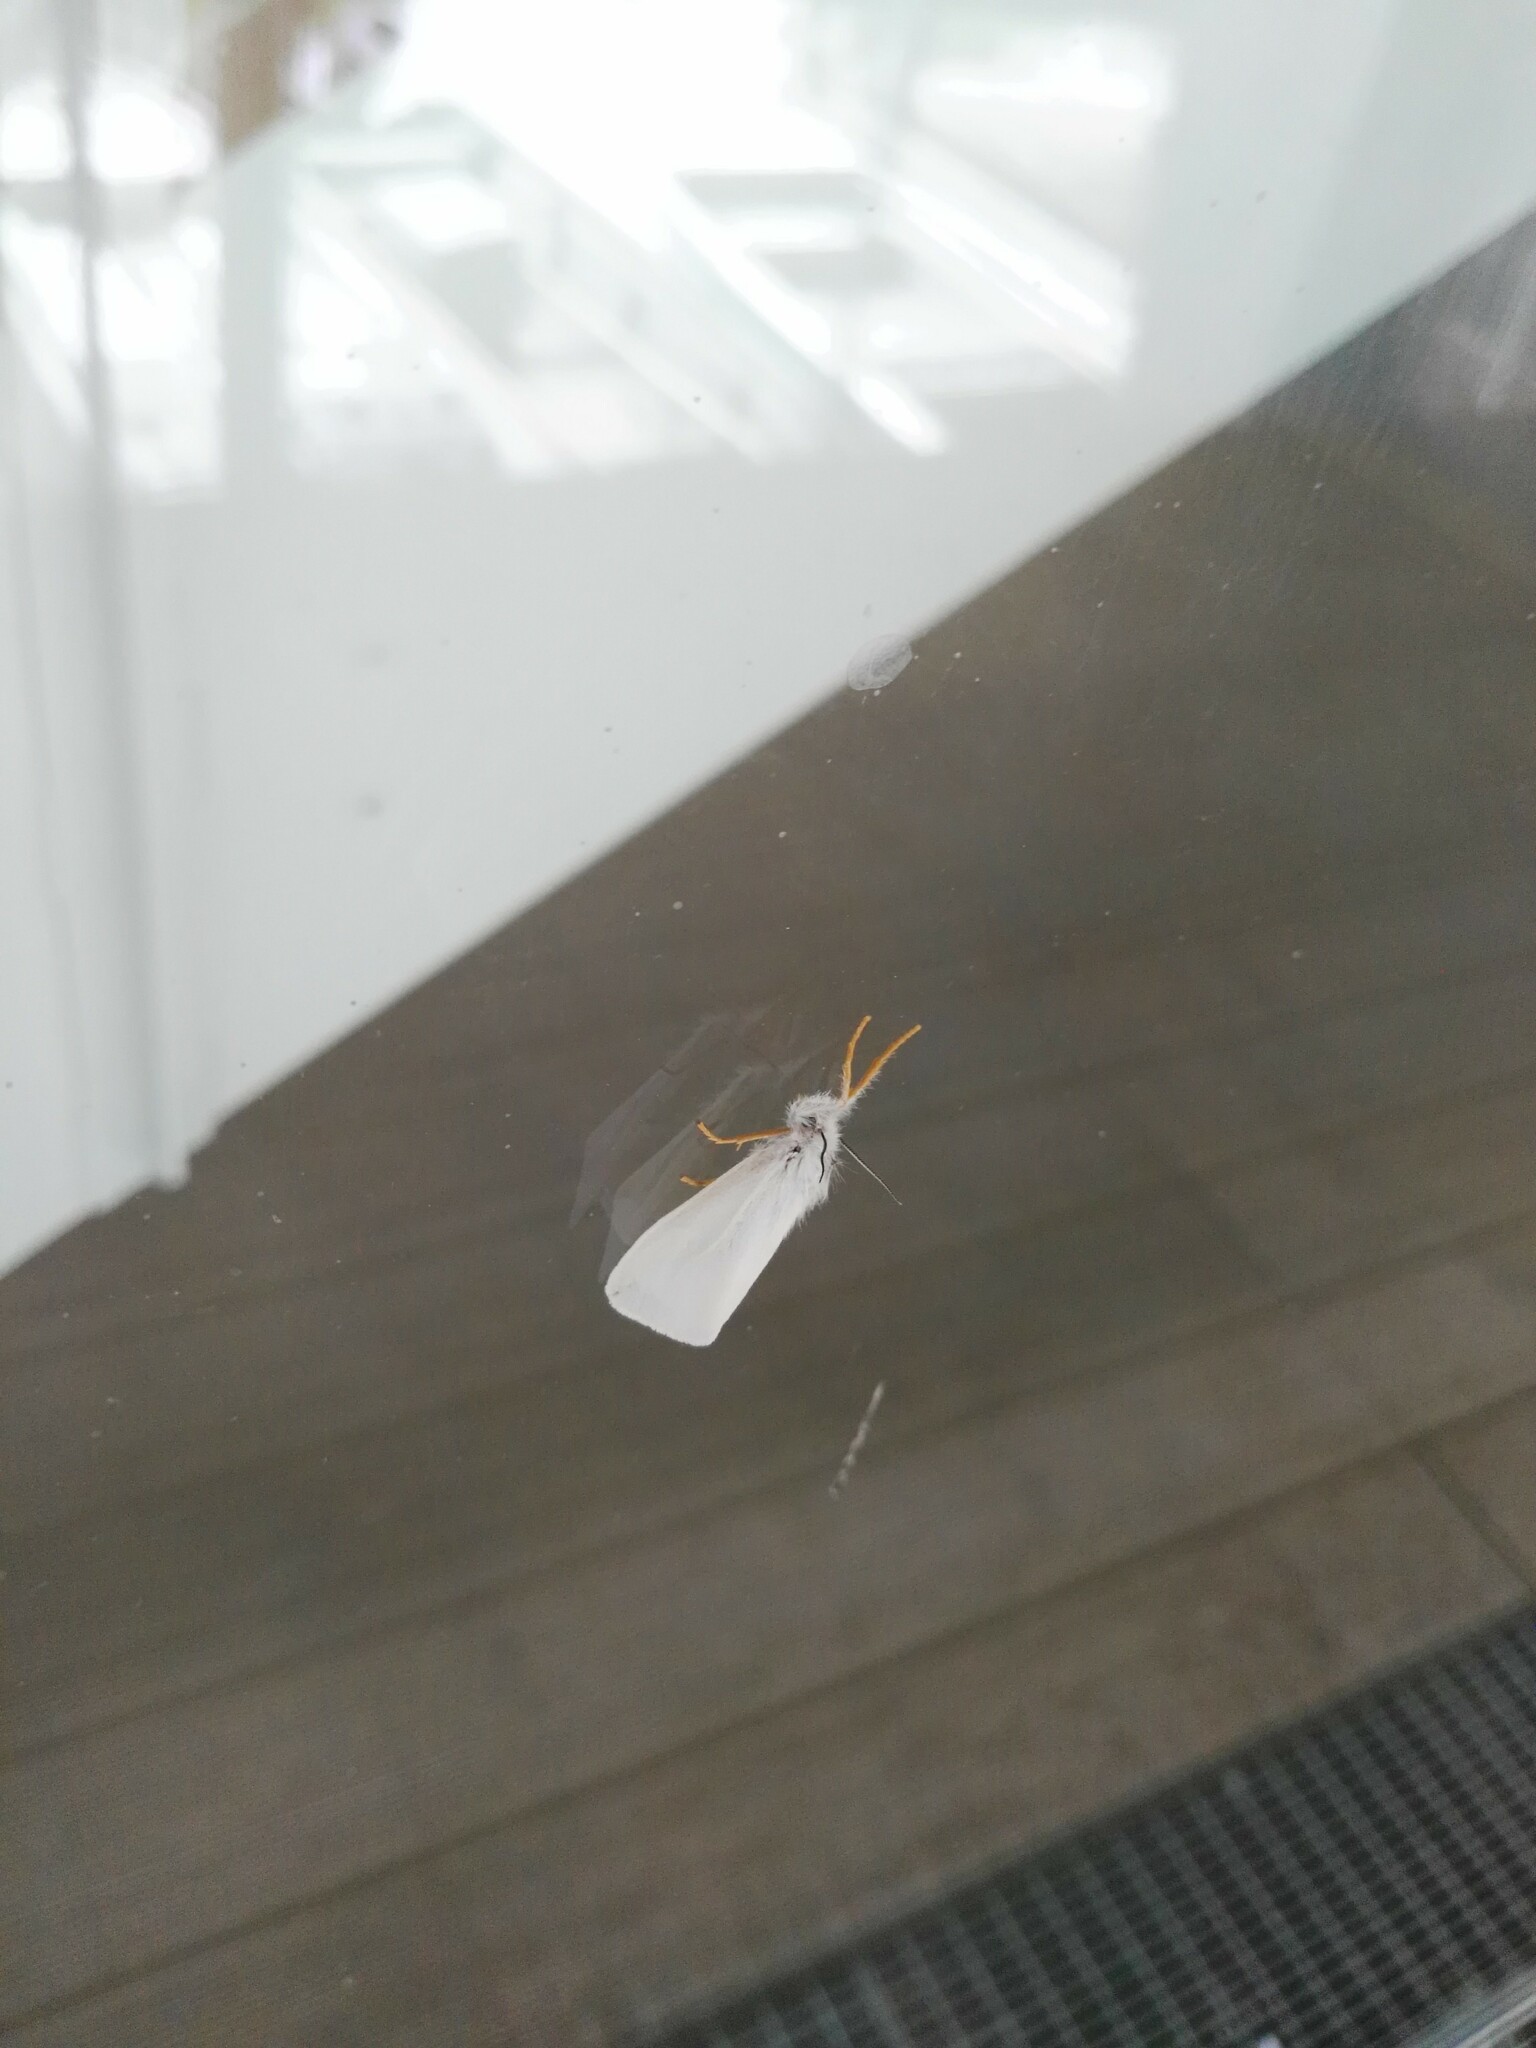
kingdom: Animalia
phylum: Arthropoda
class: Insecta
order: Lepidoptera
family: Erebidae
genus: Laelia
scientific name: Laelia coenosa
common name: Reed tussock
